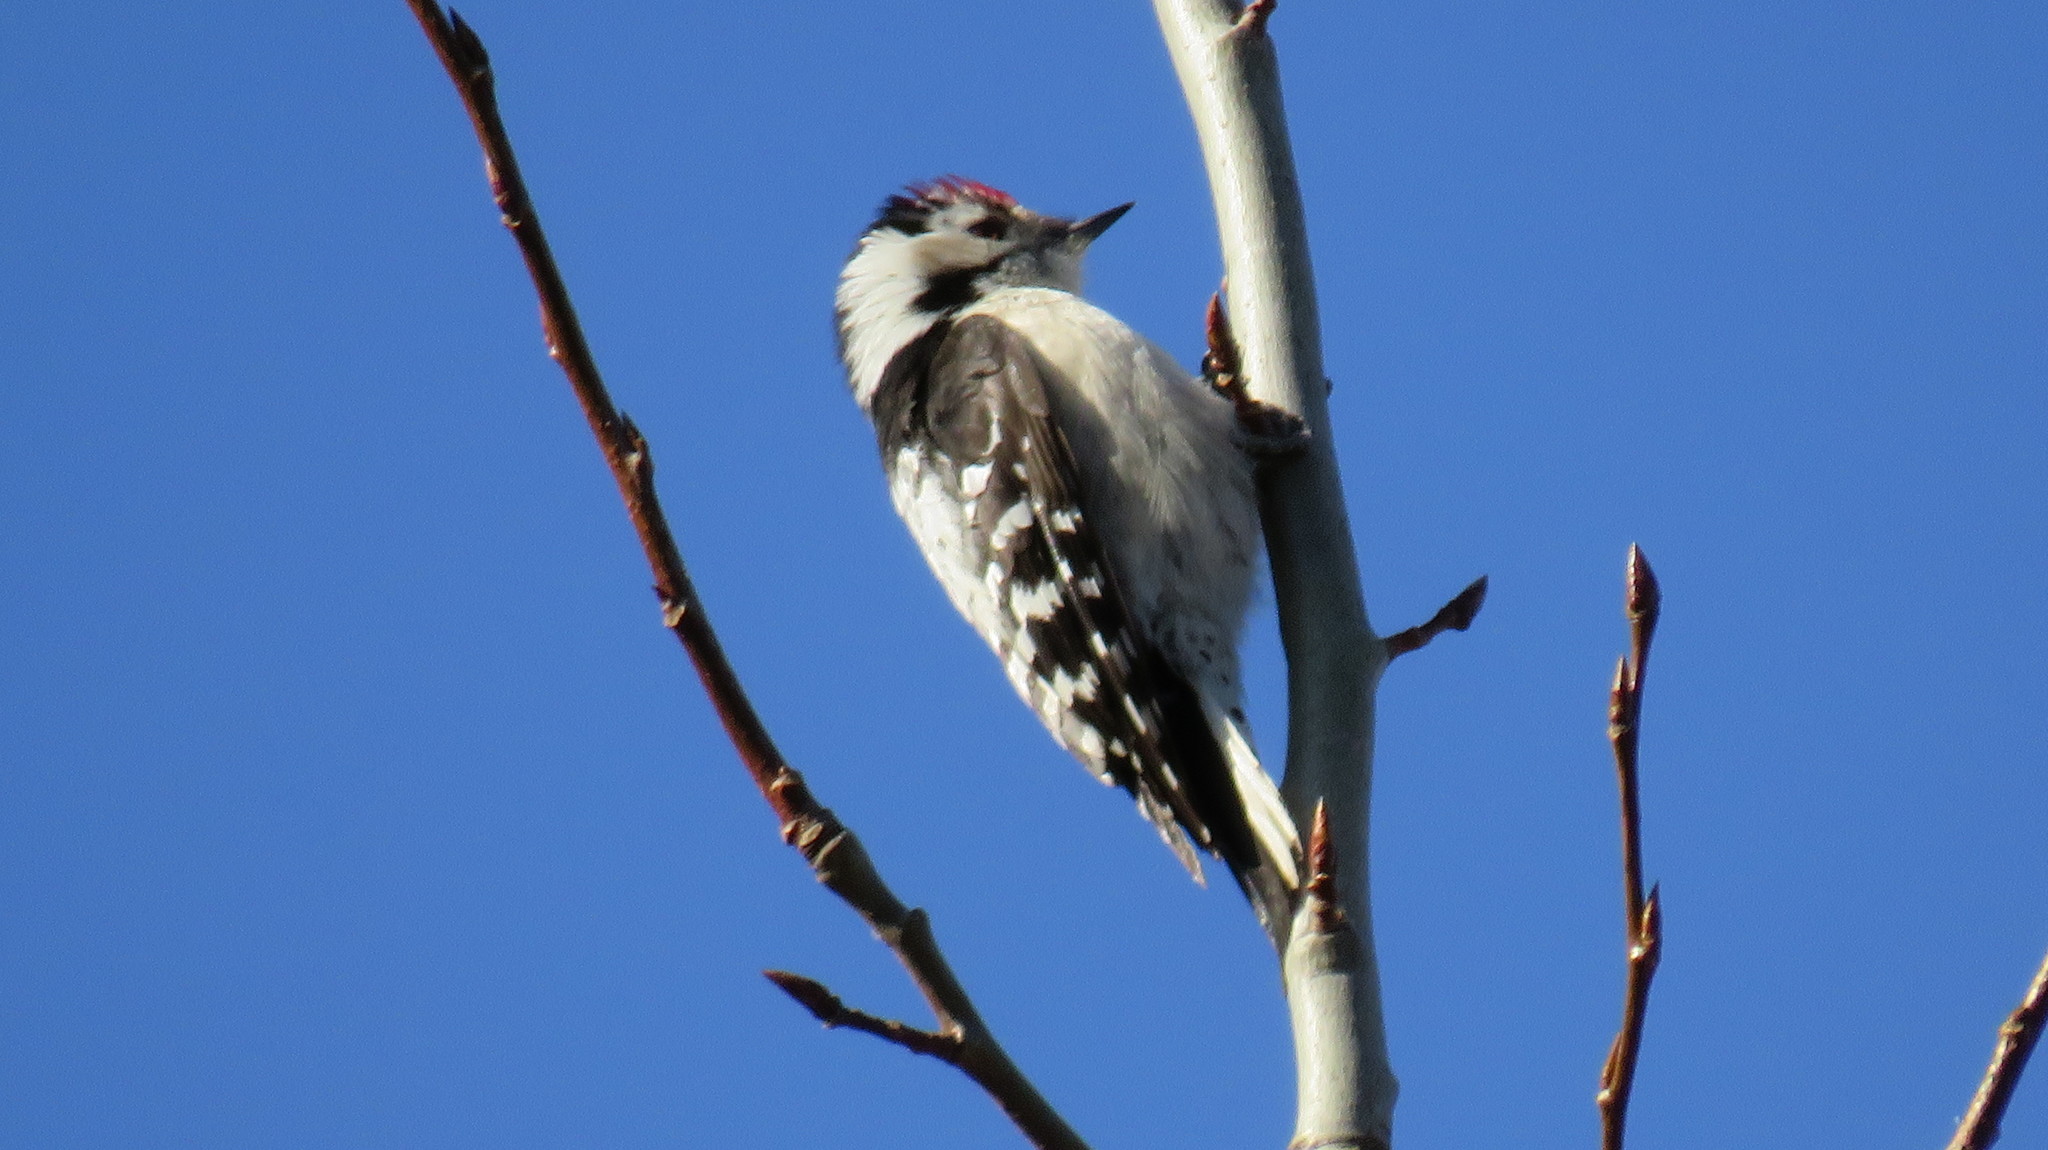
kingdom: Animalia
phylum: Chordata
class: Aves
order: Piciformes
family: Picidae
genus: Dryobates
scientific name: Dryobates minor
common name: Lesser spotted woodpecker
